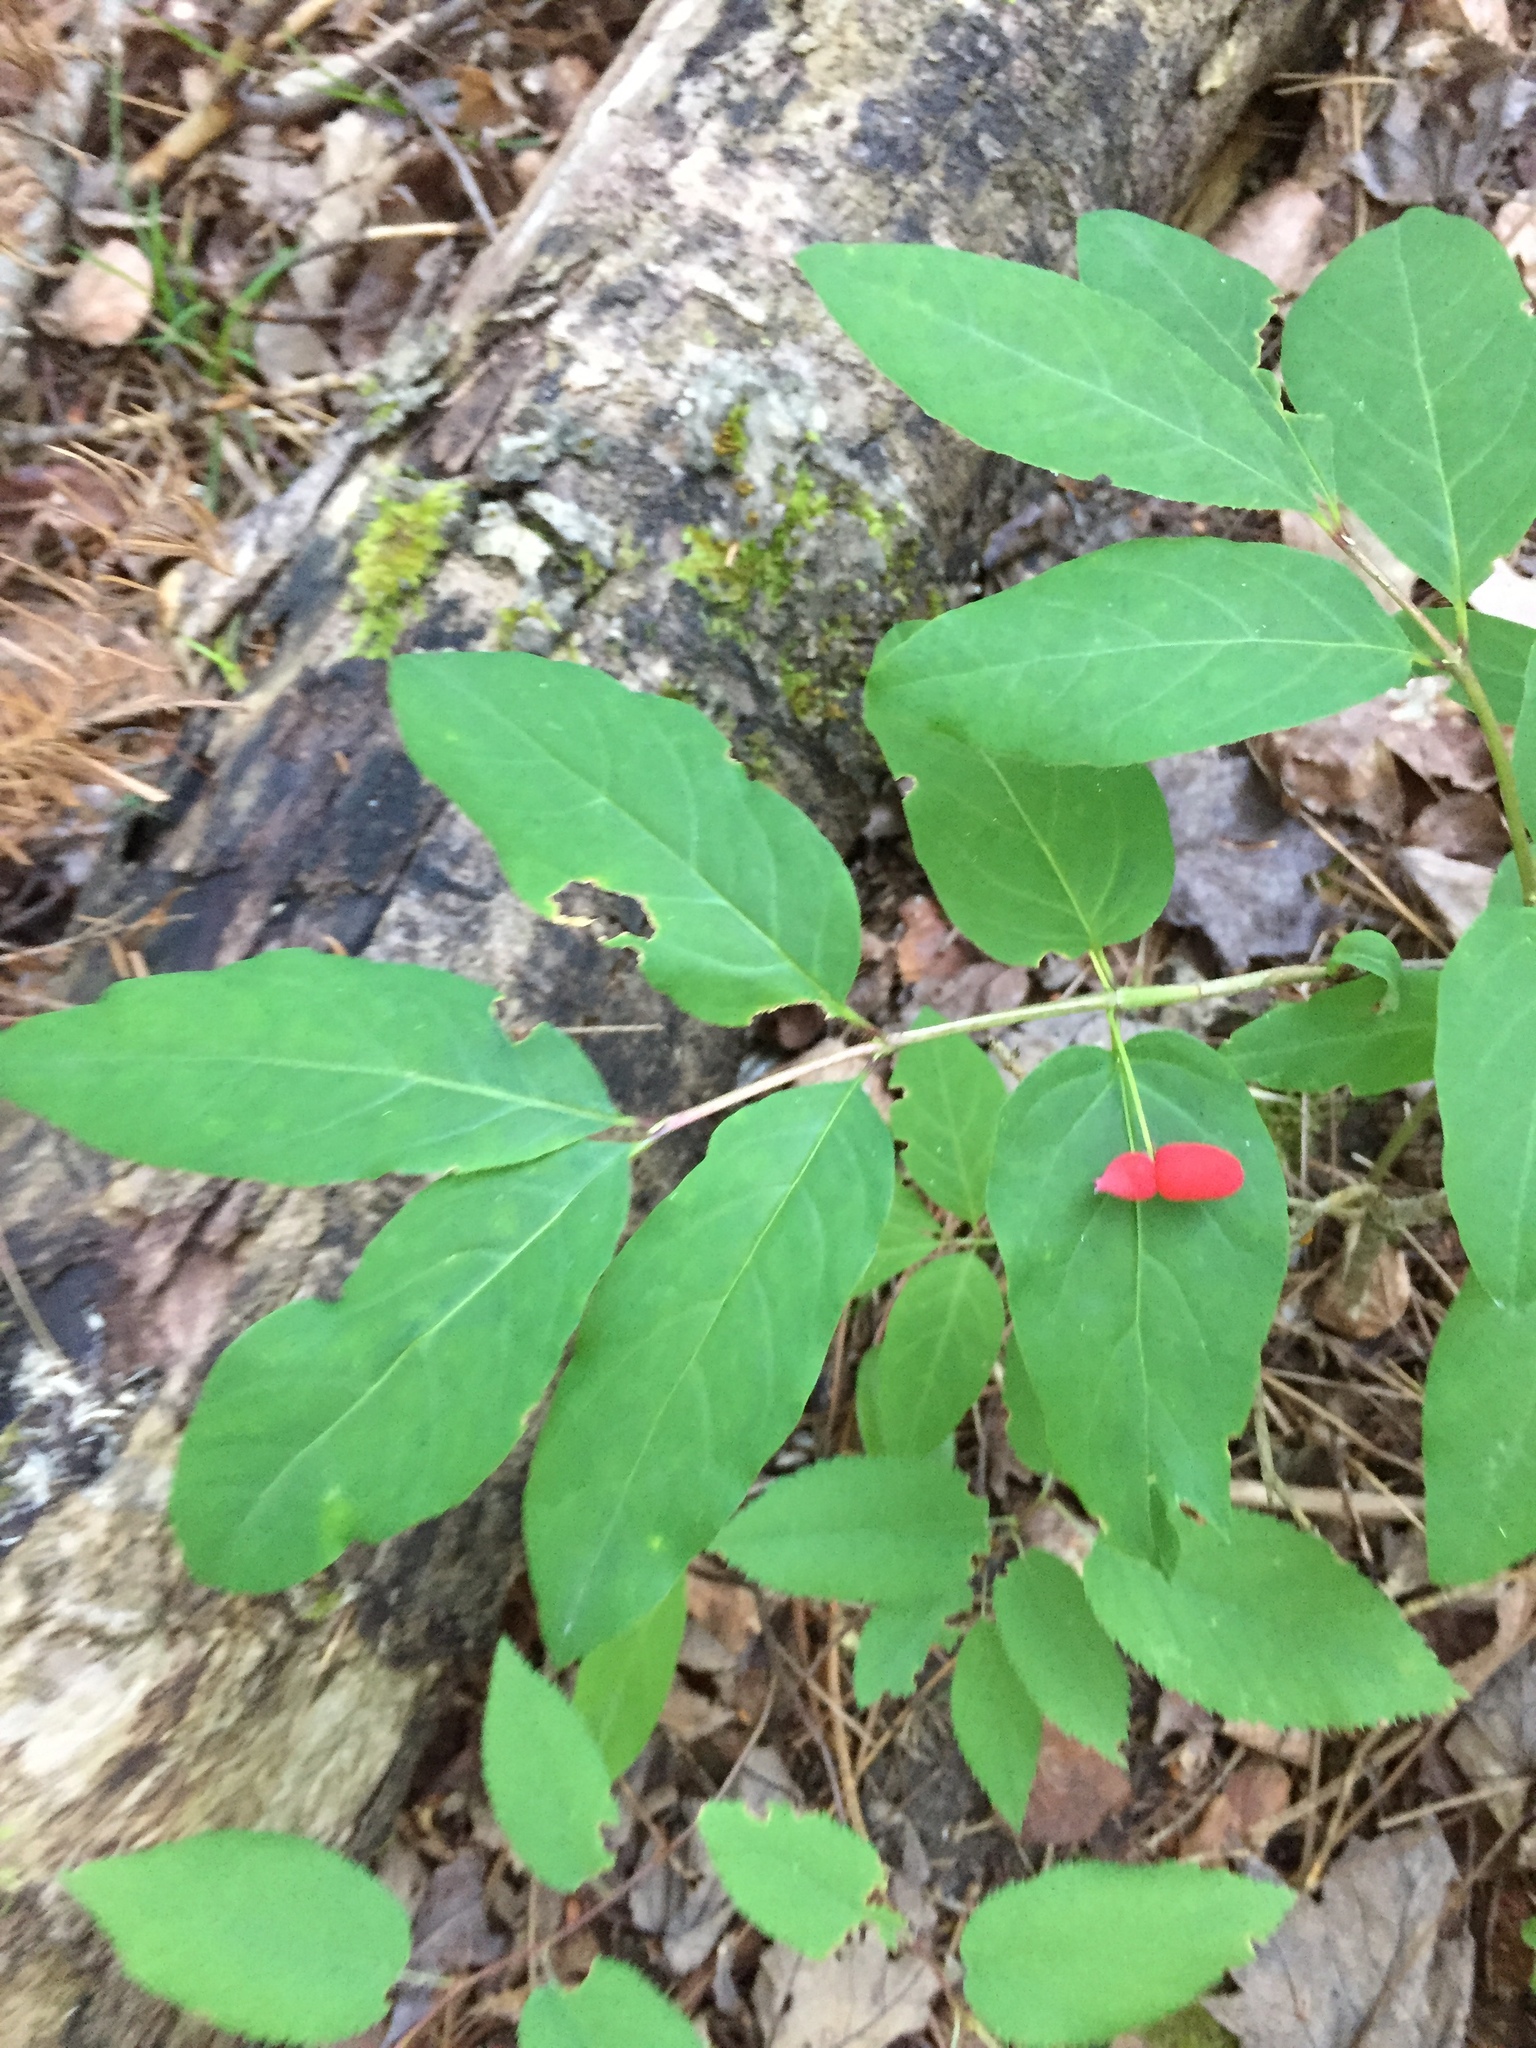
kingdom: Plantae
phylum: Tracheophyta
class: Magnoliopsida
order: Dipsacales
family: Caprifoliaceae
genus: Lonicera
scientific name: Lonicera canadensis
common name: American fly-honeysuckle
